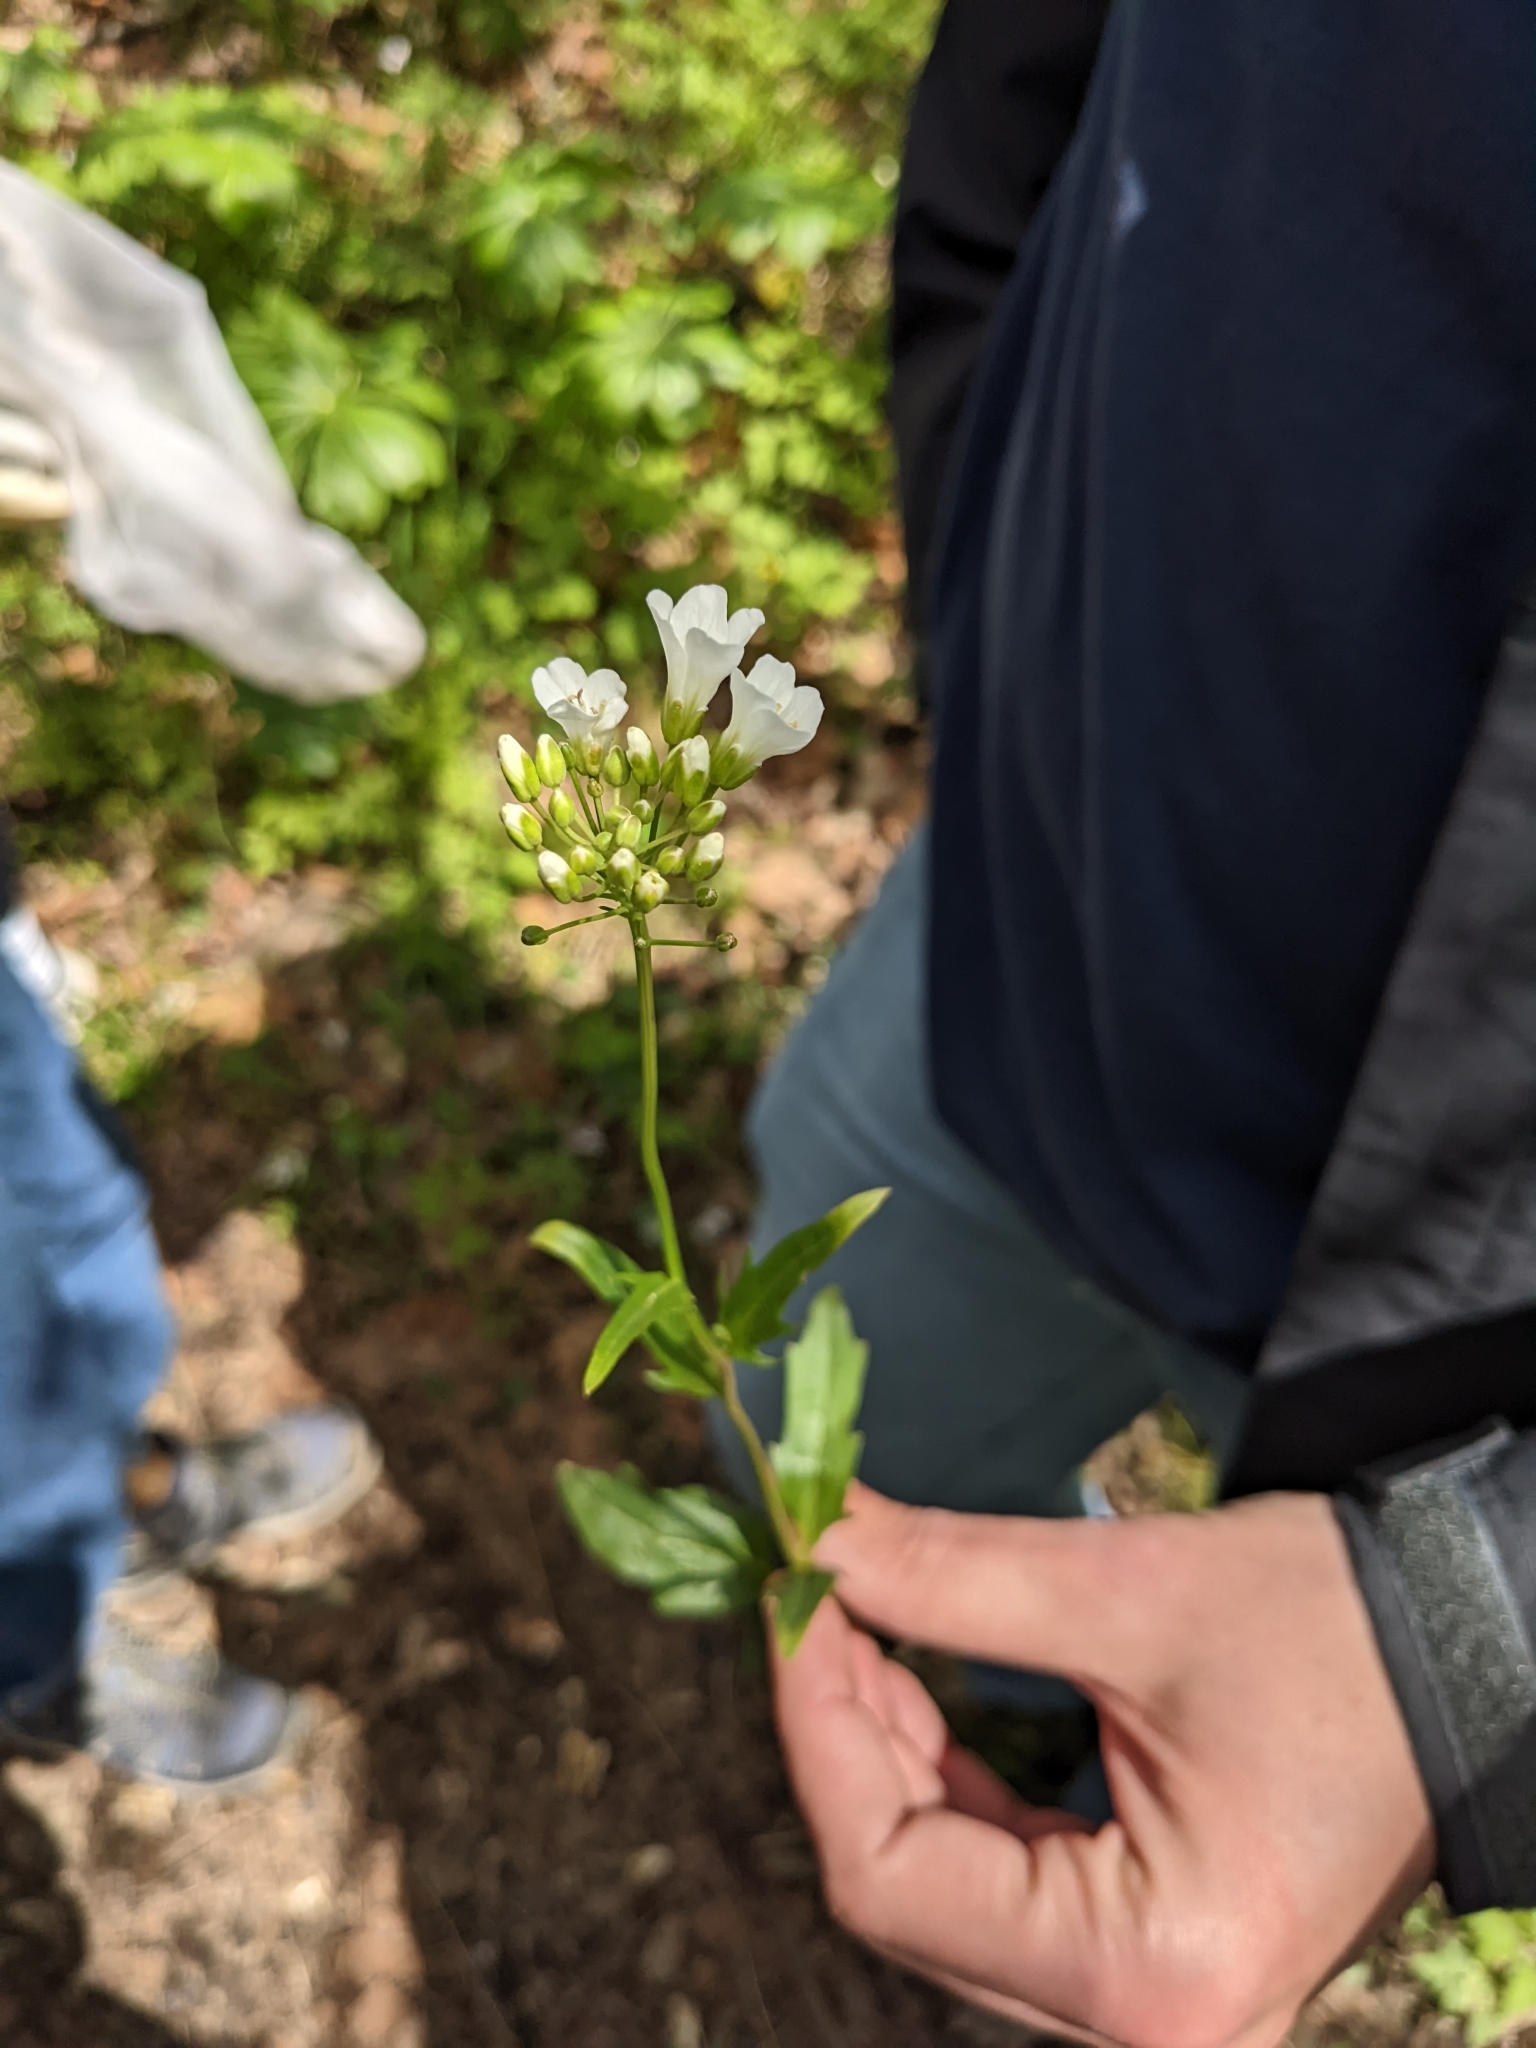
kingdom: Plantae
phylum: Tracheophyta
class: Magnoliopsida
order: Brassicales
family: Brassicaceae
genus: Cardamine
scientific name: Cardamine bulbosa
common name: Spring cress
